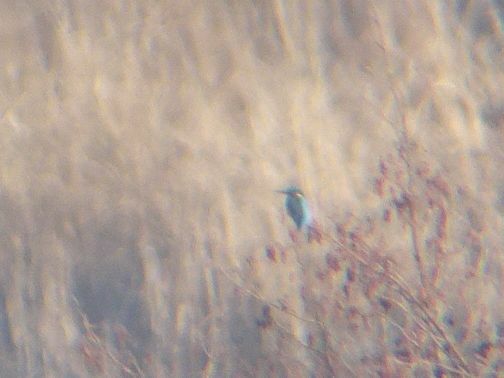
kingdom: Animalia
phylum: Chordata
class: Aves
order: Coraciiformes
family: Alcedinidae
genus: Alcedo
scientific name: Alcedo atthis
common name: Common kingfisher
